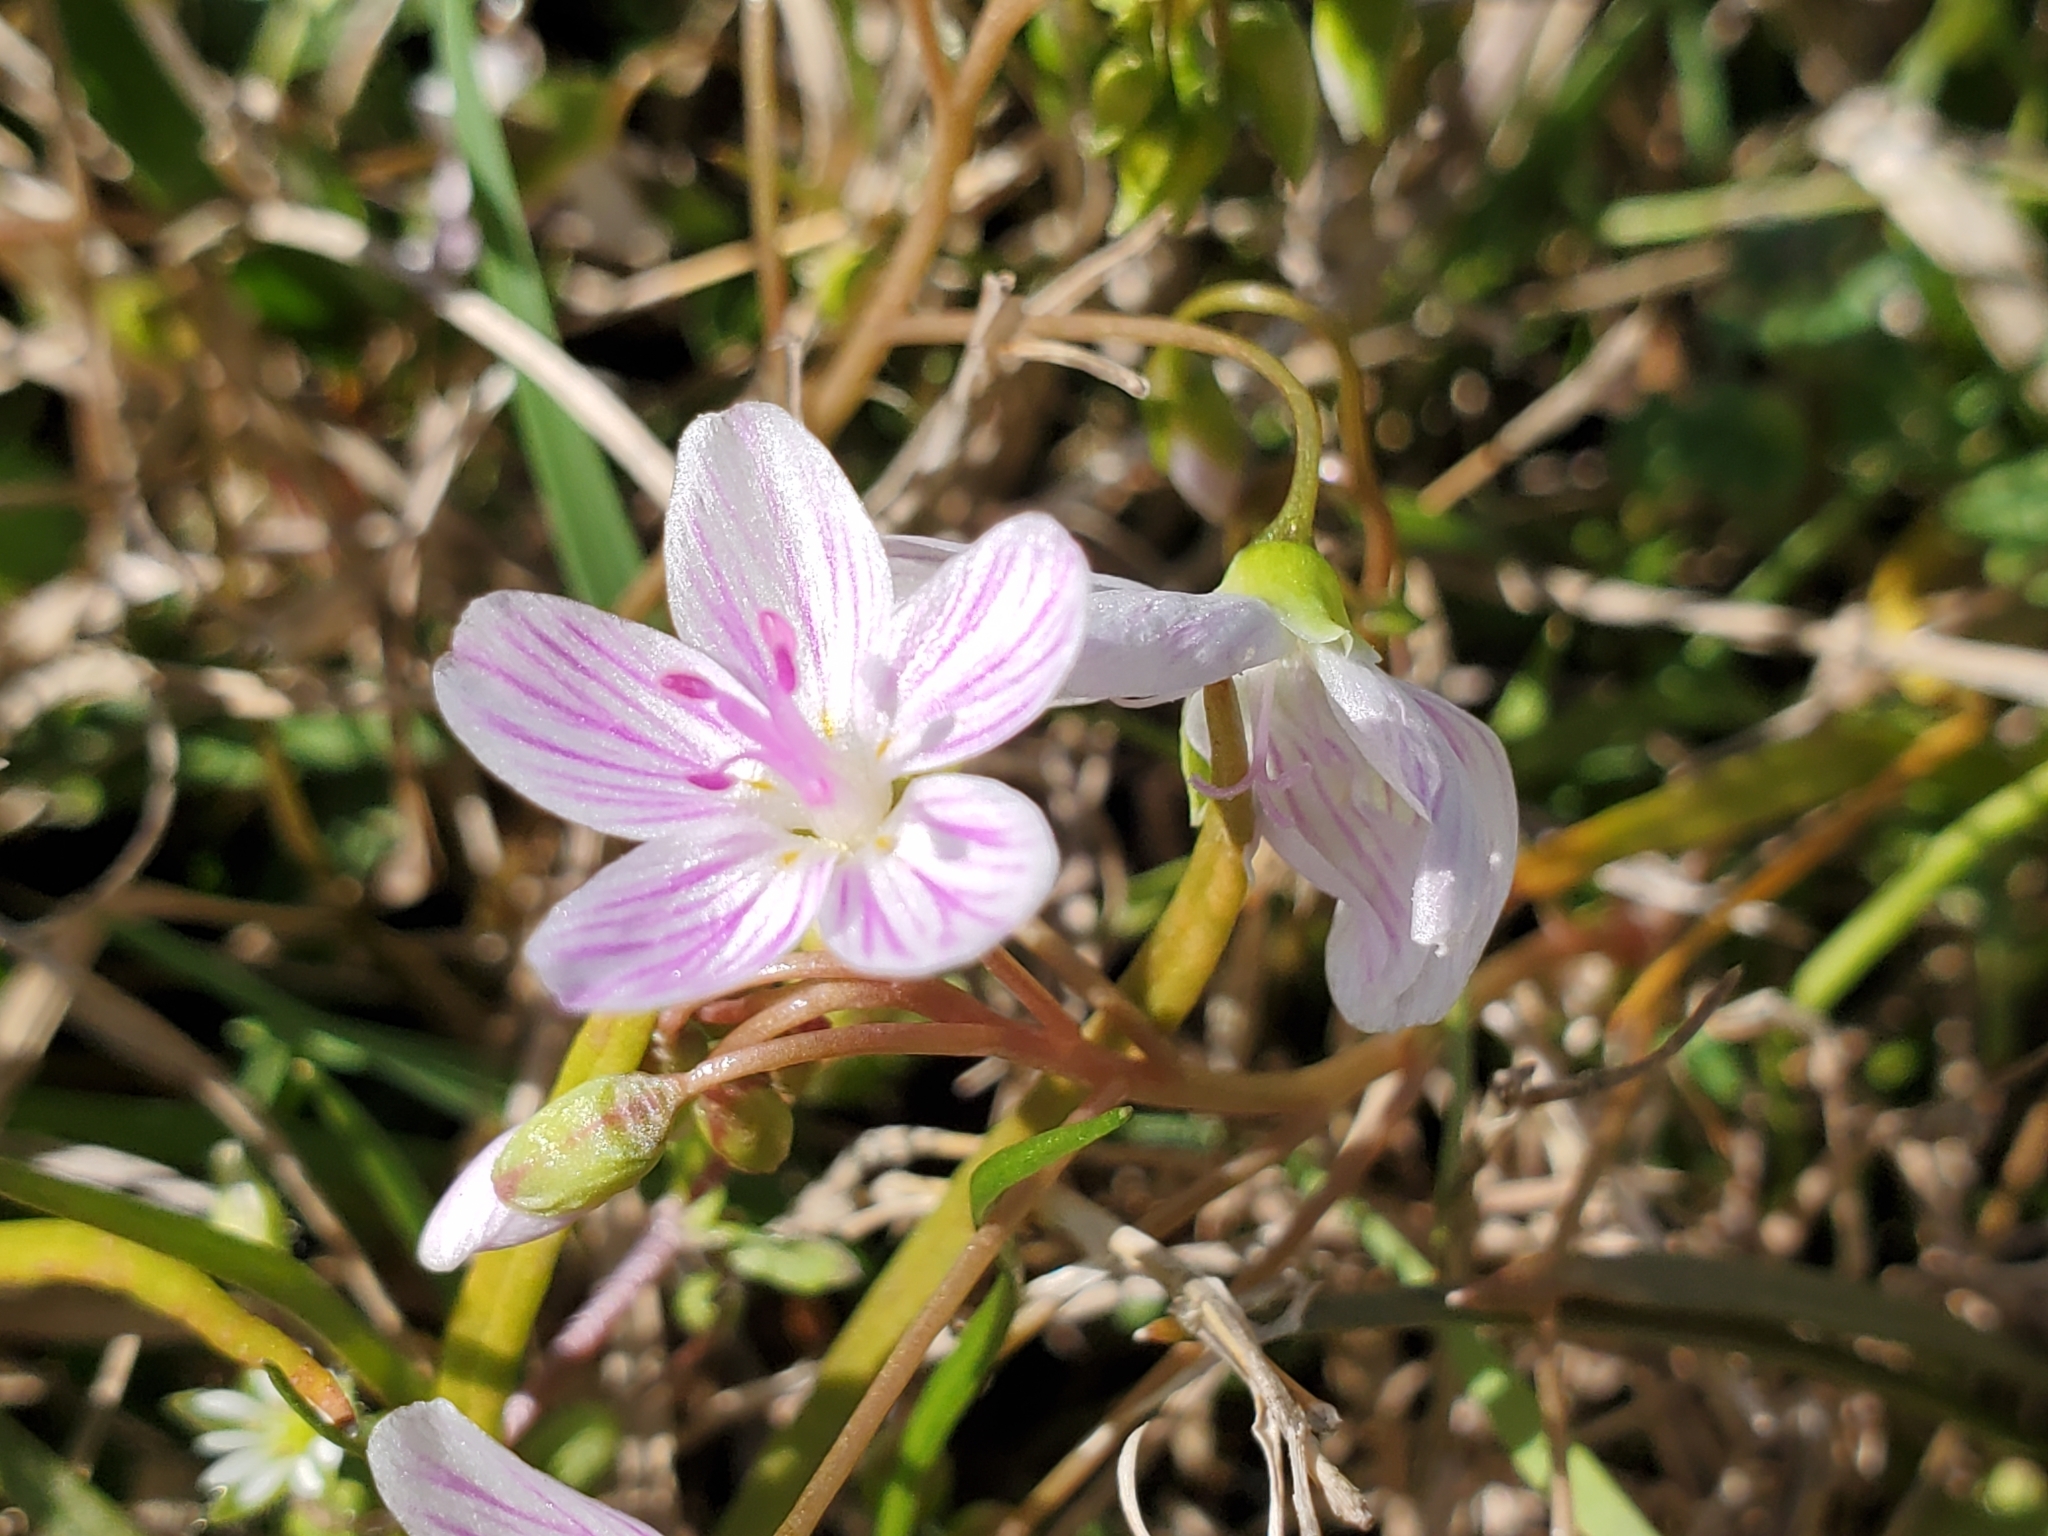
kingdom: Plantae
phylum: Tracheophyta
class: Magnoliopsida
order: Caryophyllales
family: Montiaceae
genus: Claytonia
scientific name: Claytonia virginica
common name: Virginia springbeauty
